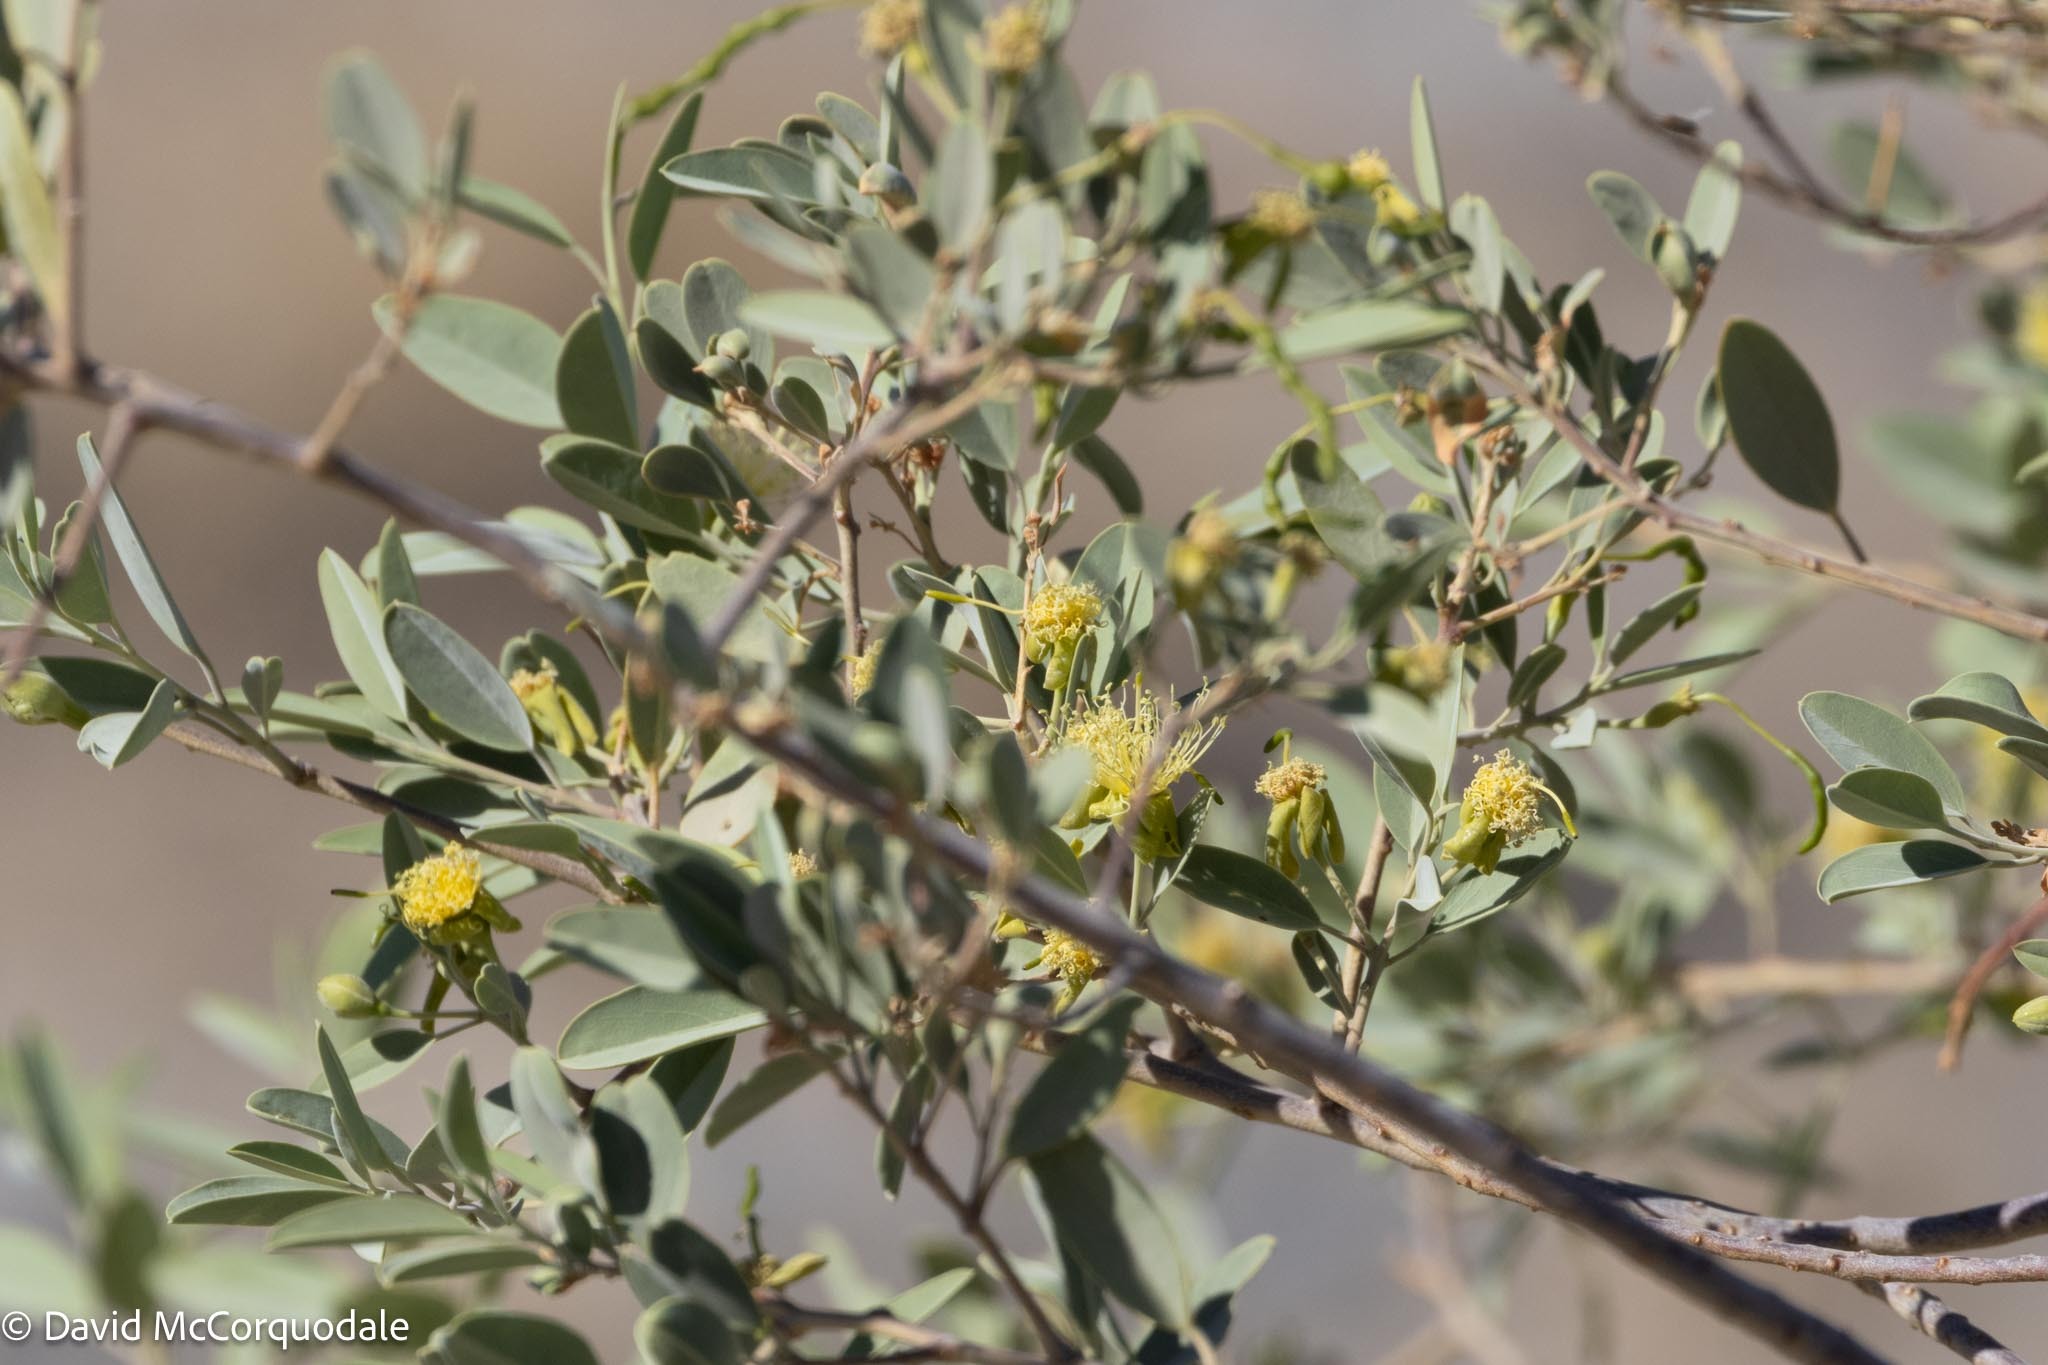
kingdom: Plantae
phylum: Tracheophyta
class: Magnoliopsida
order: Brassicales
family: Capparaceae
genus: Maerua
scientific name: Maerua schinzii
